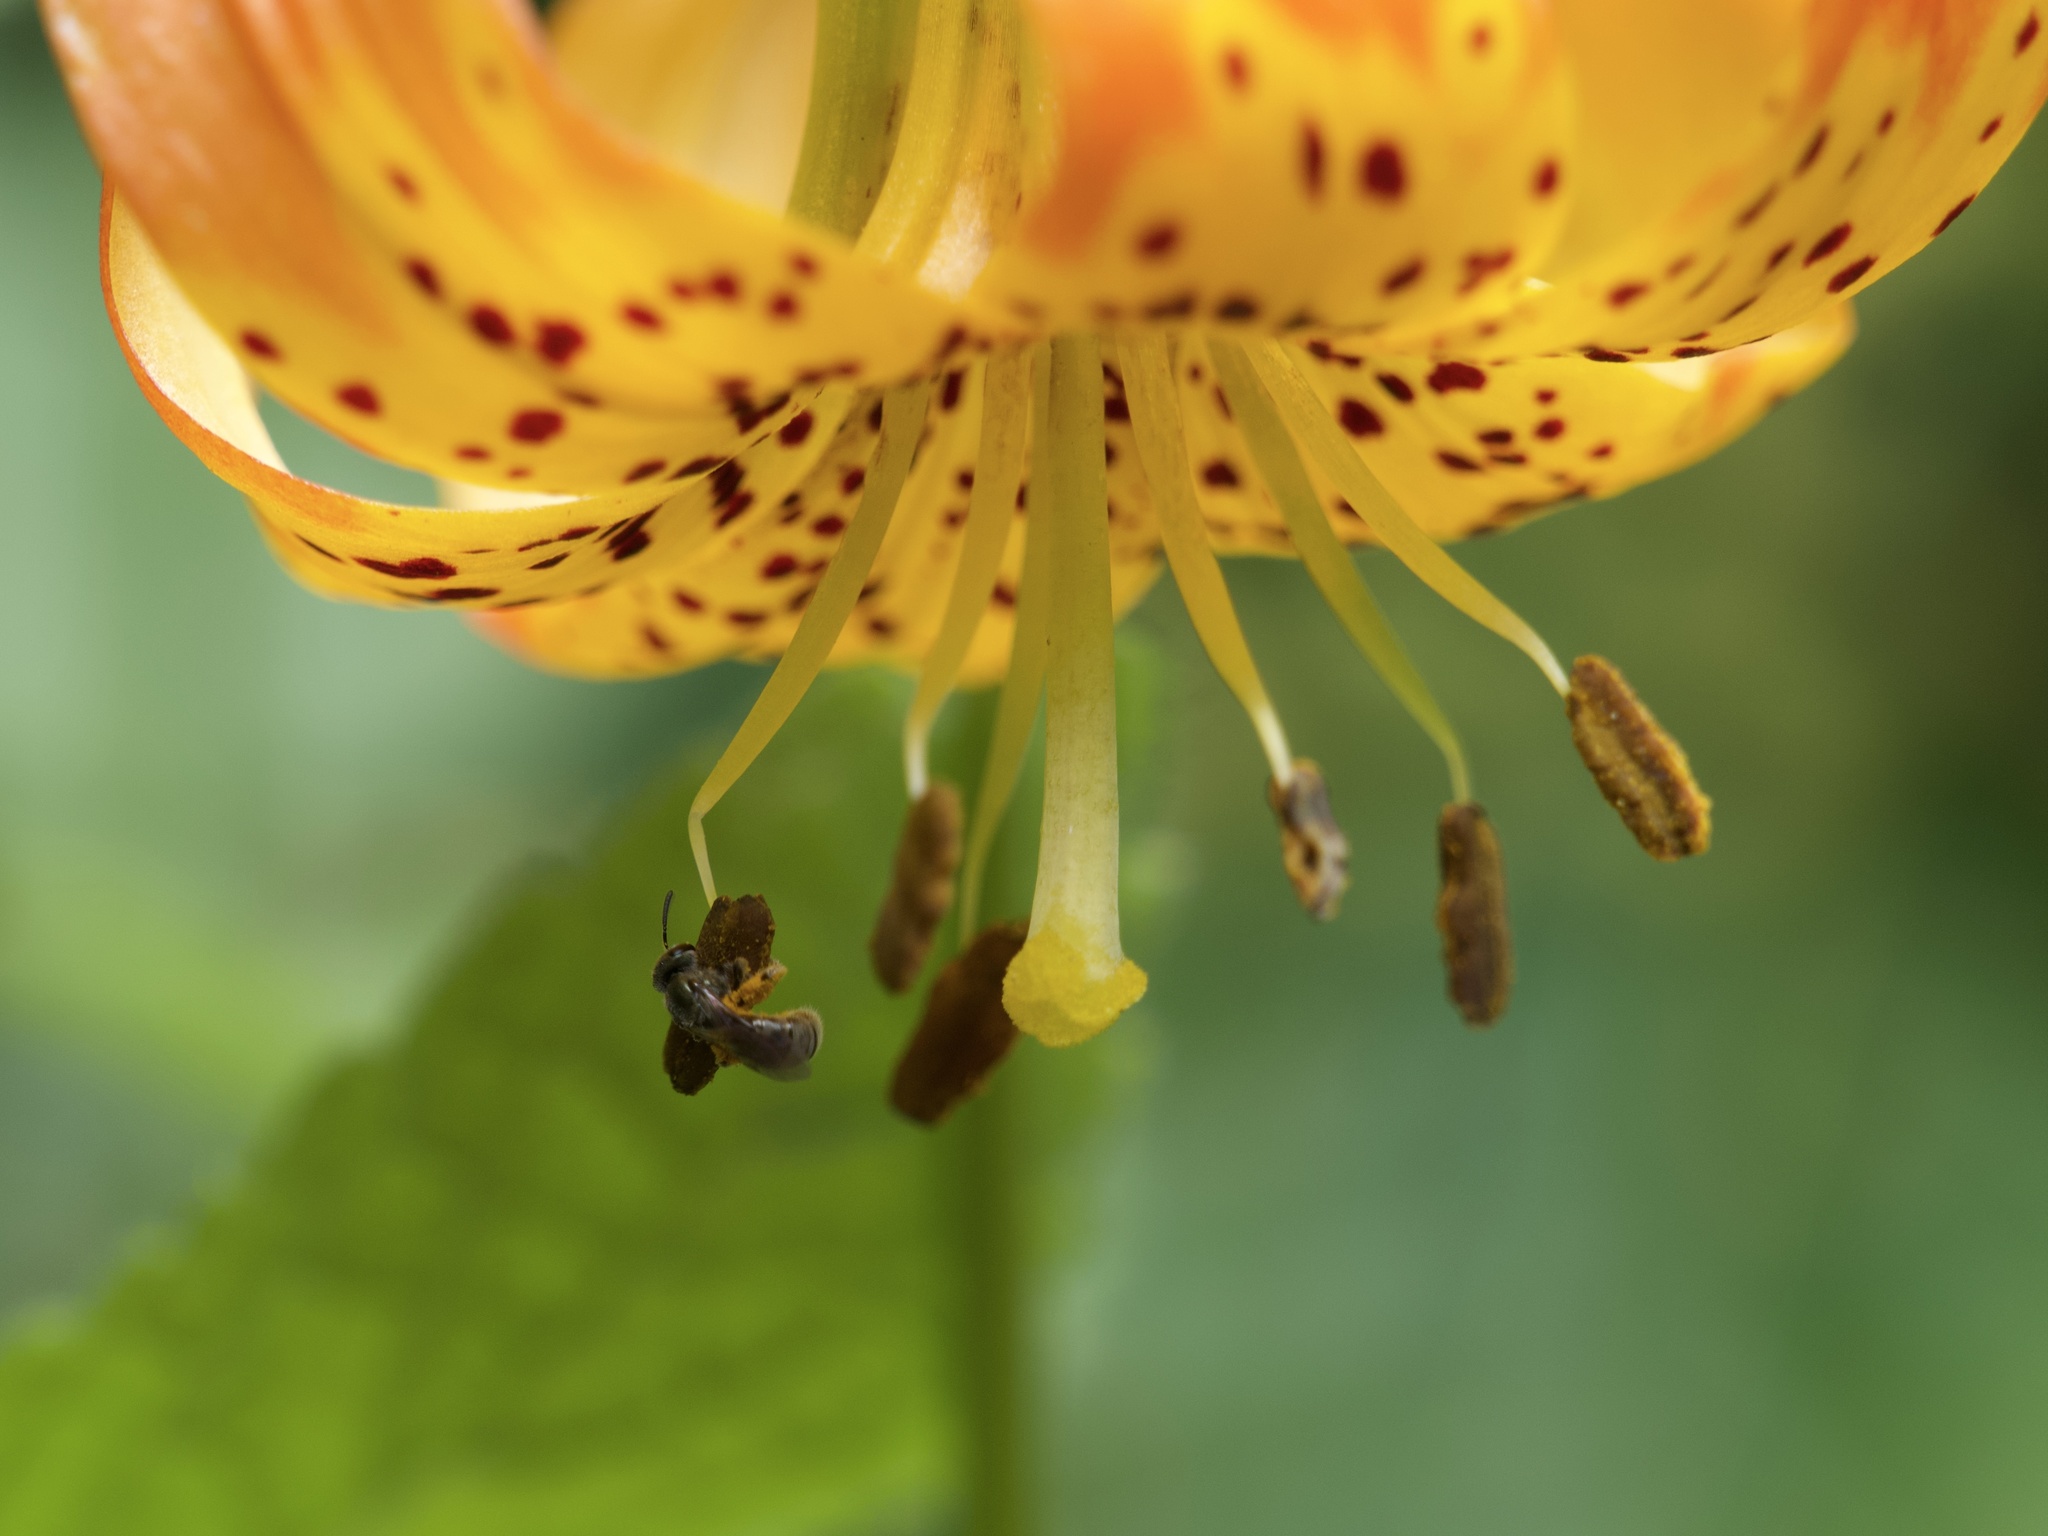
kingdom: Plantae
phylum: Tracheophyta
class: Liliopsida
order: Liliales
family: Liliaceae
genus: Lilium
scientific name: Lilium pardalinum
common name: Panther lily
